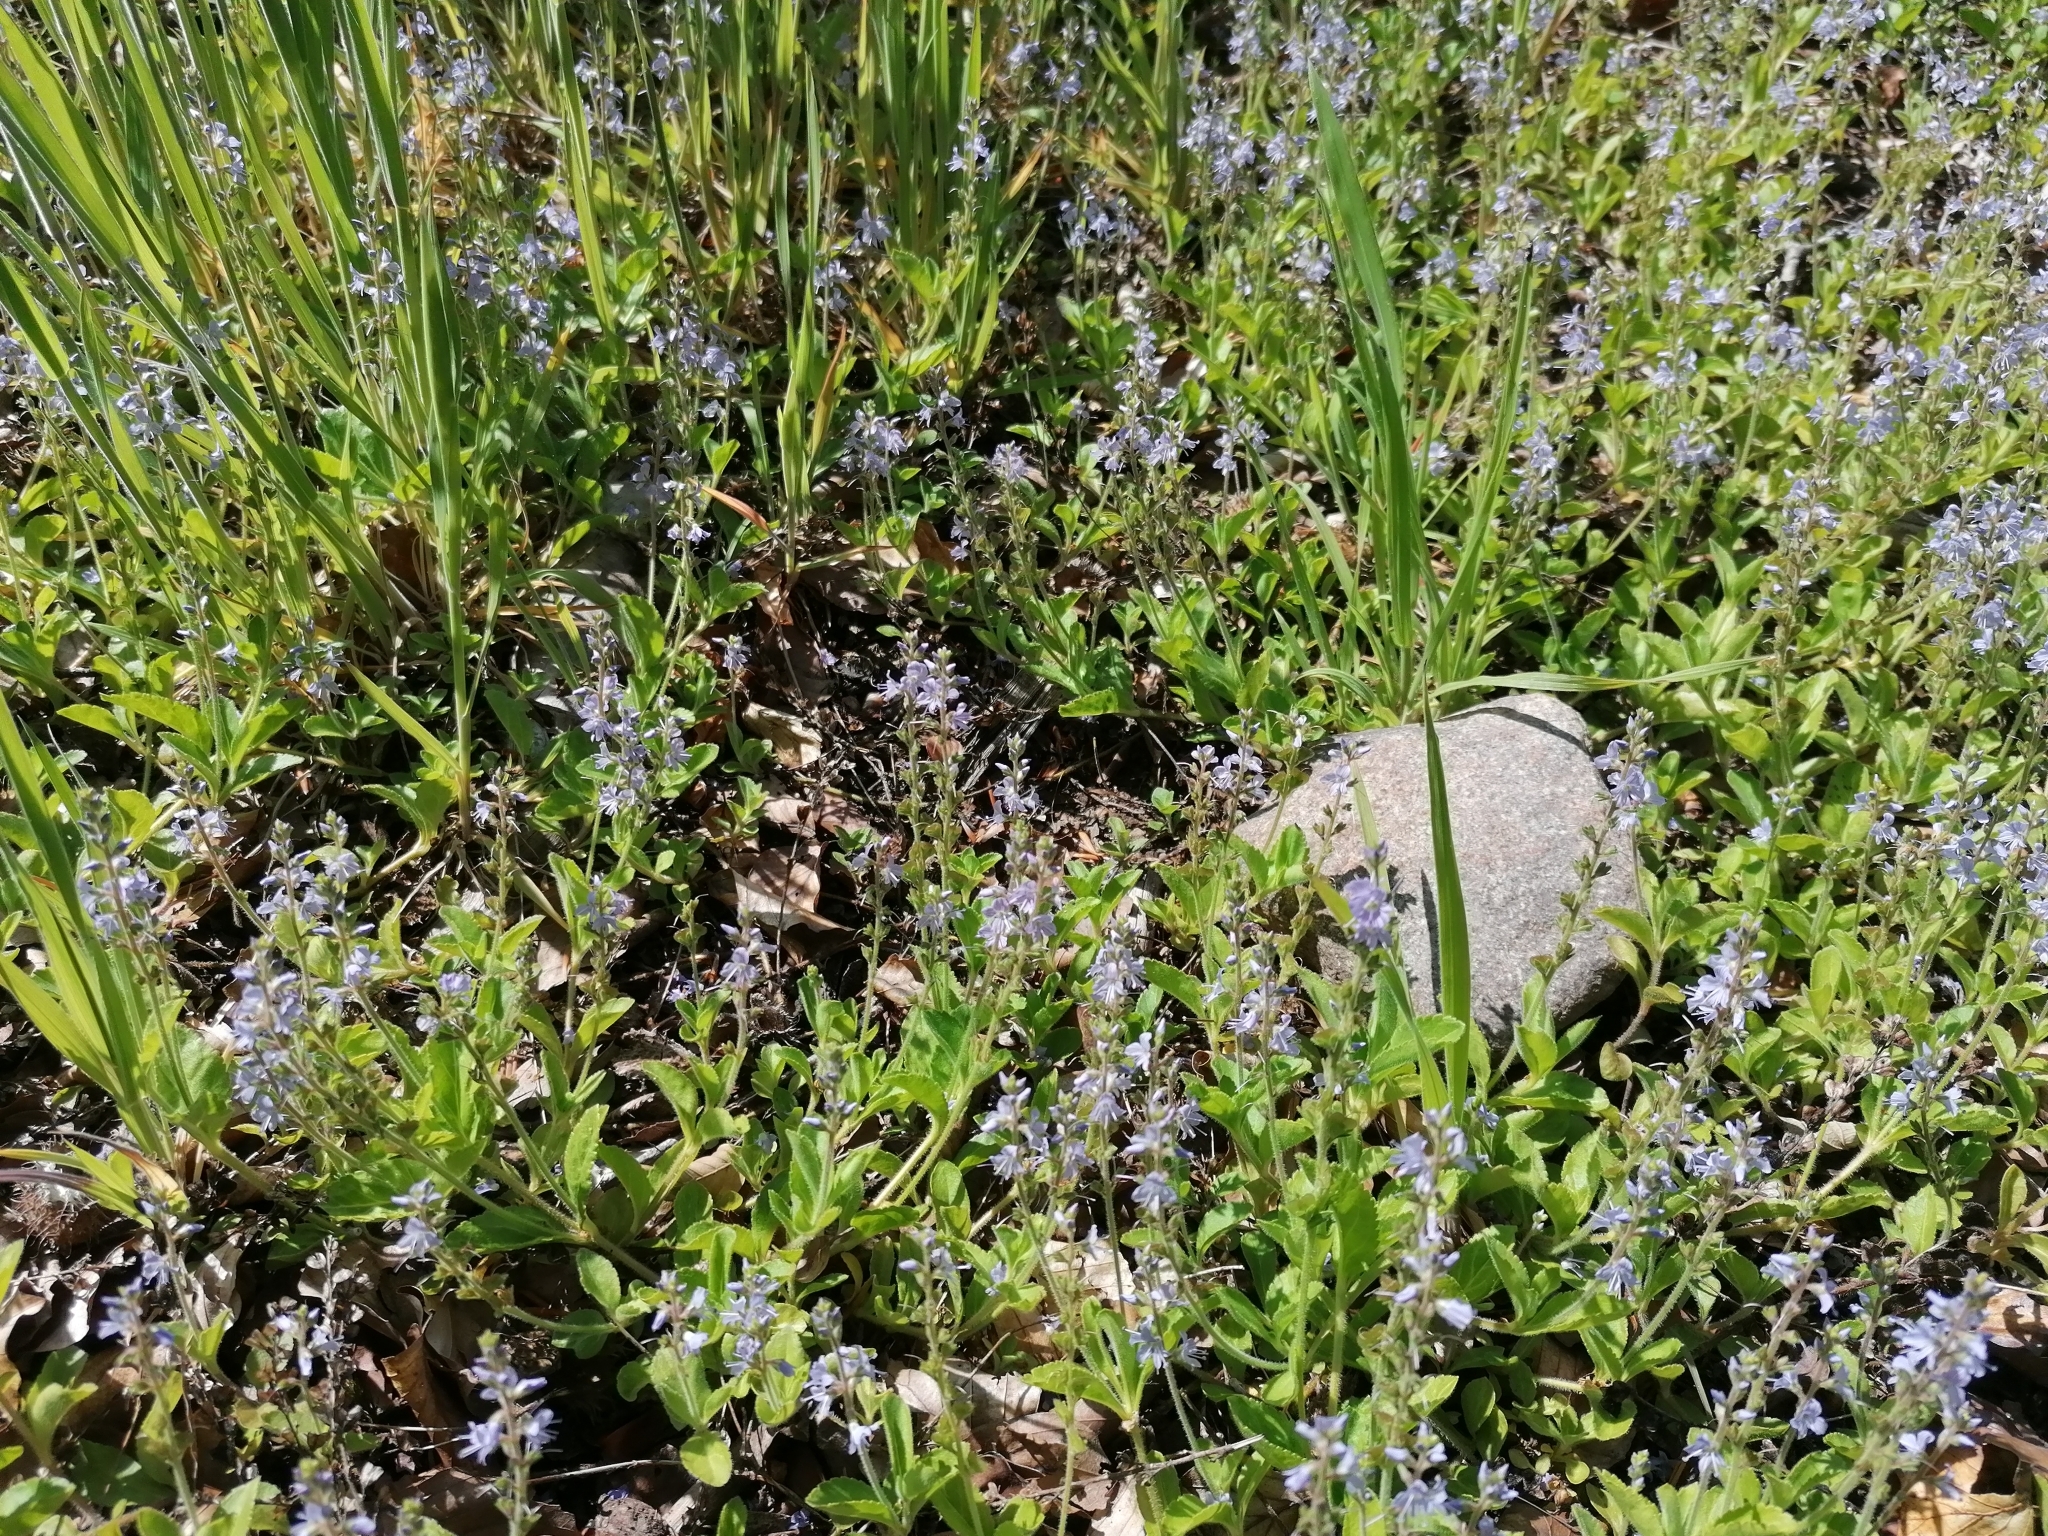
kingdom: Plantae
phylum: Tracheophyta
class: Magnoliopsida
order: Lamiales
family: Plantaginaceae
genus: Veronica
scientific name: Veronica officinalis
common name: Common speedwell
